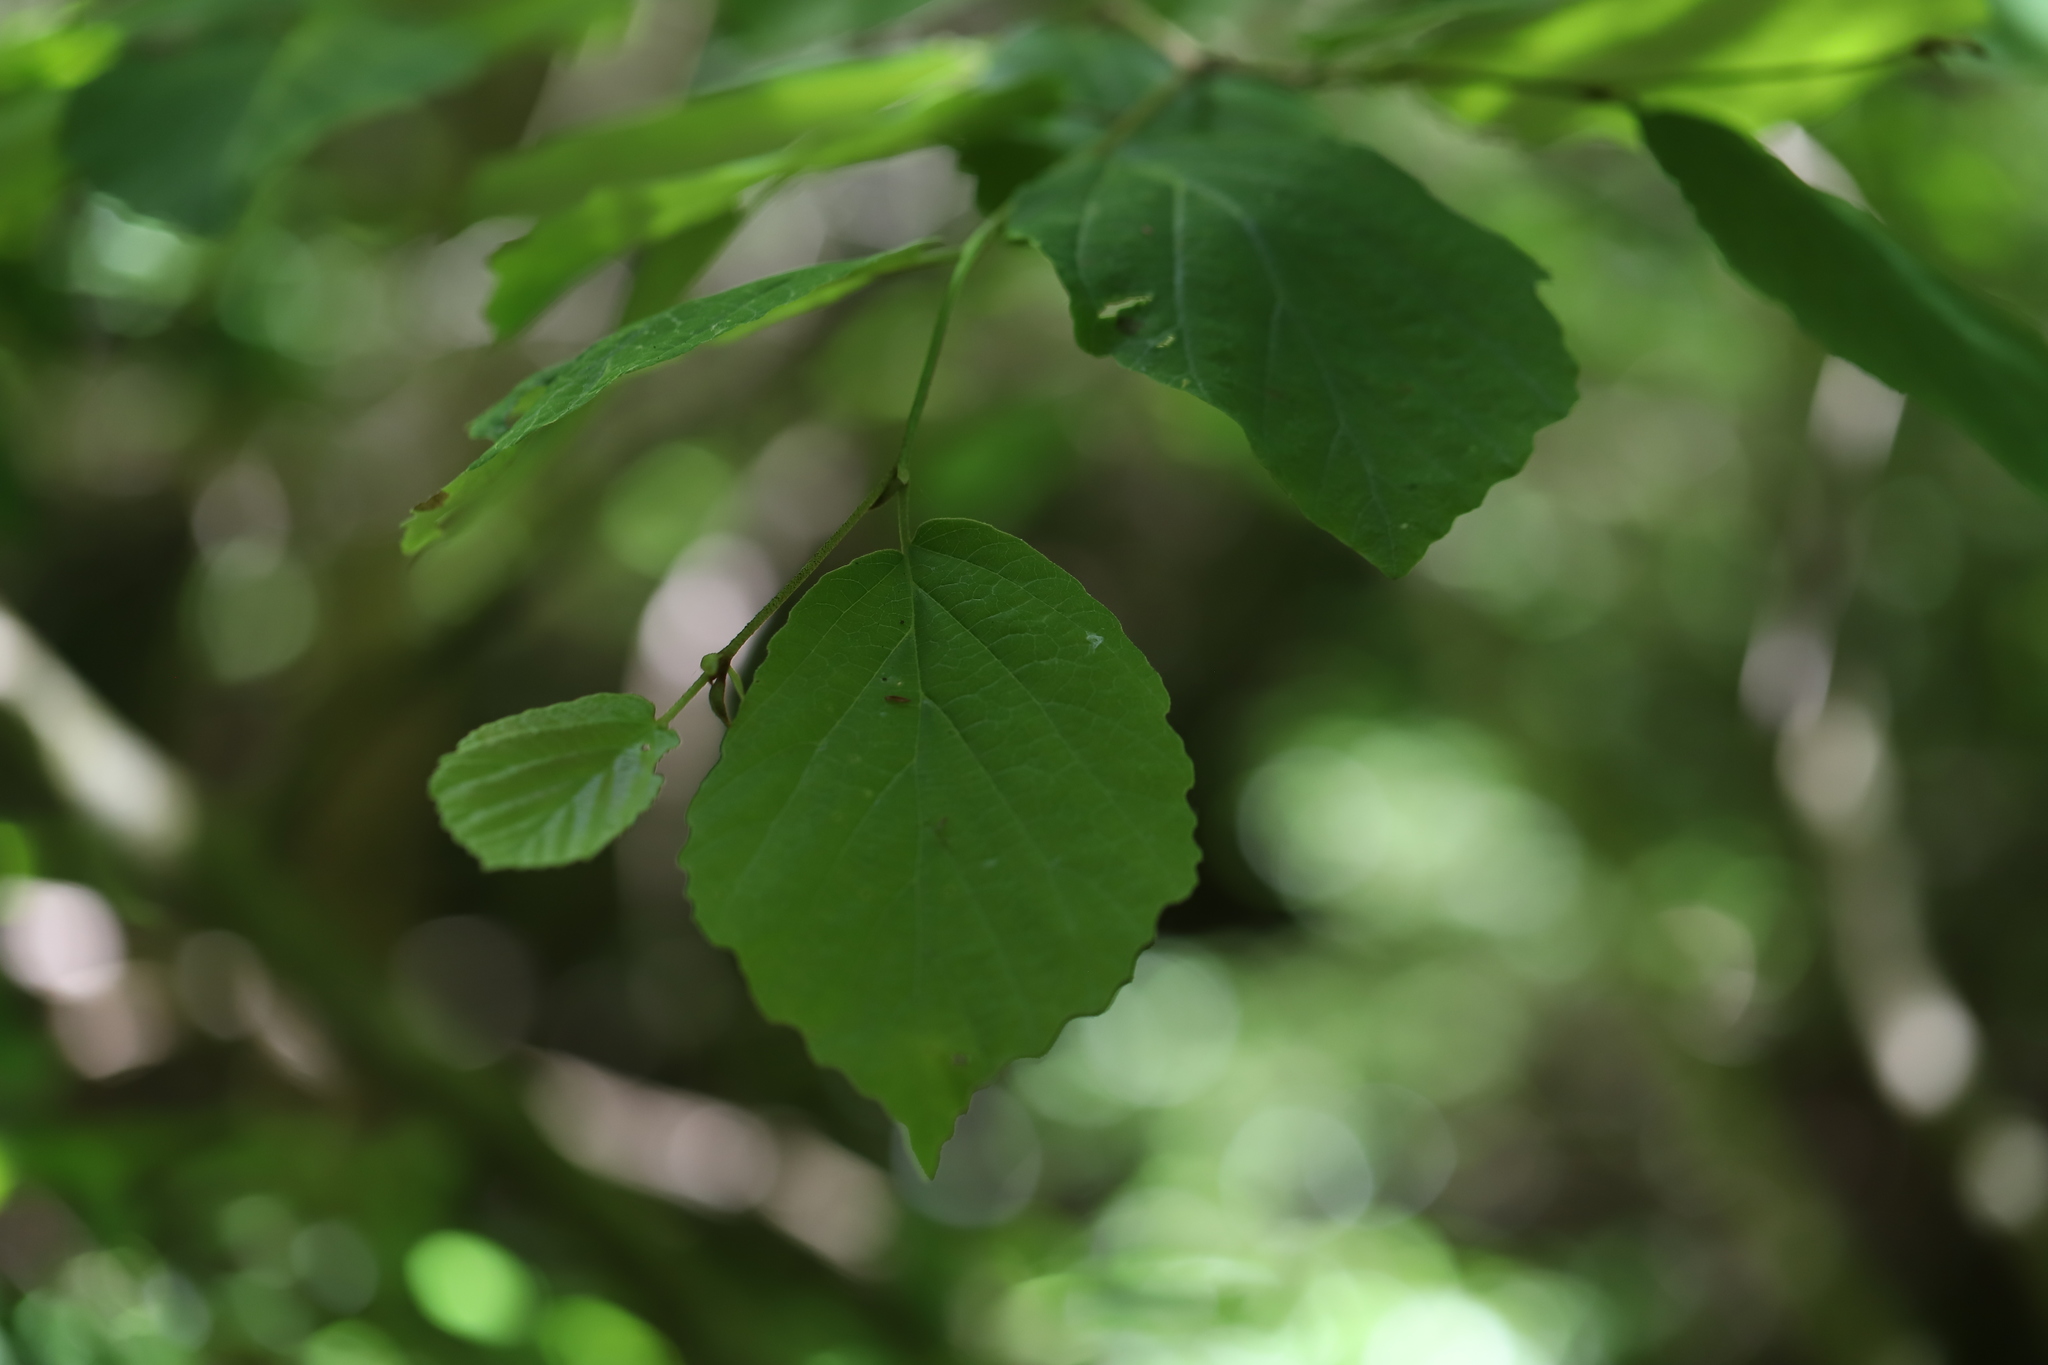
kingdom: Plantae
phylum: Tracheophyta
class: Magnoliopsida
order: Saxifragales
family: Hamamelidaceae
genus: Hamamelis
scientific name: Hamamelis virginiana
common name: Witch-hazel
